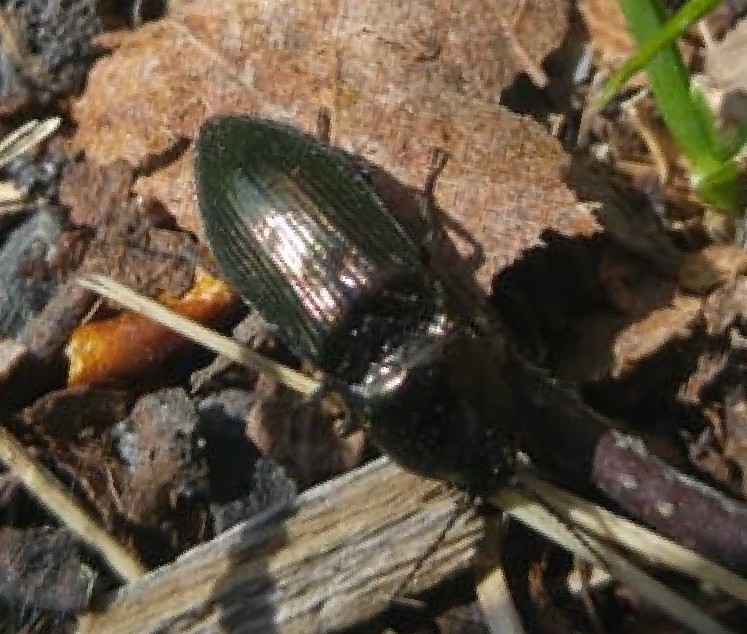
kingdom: Animalia
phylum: Arthropoda
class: Insecta
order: Coleoptera
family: Elateridae
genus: Selatosomus
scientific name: Selatosomus aeneus
